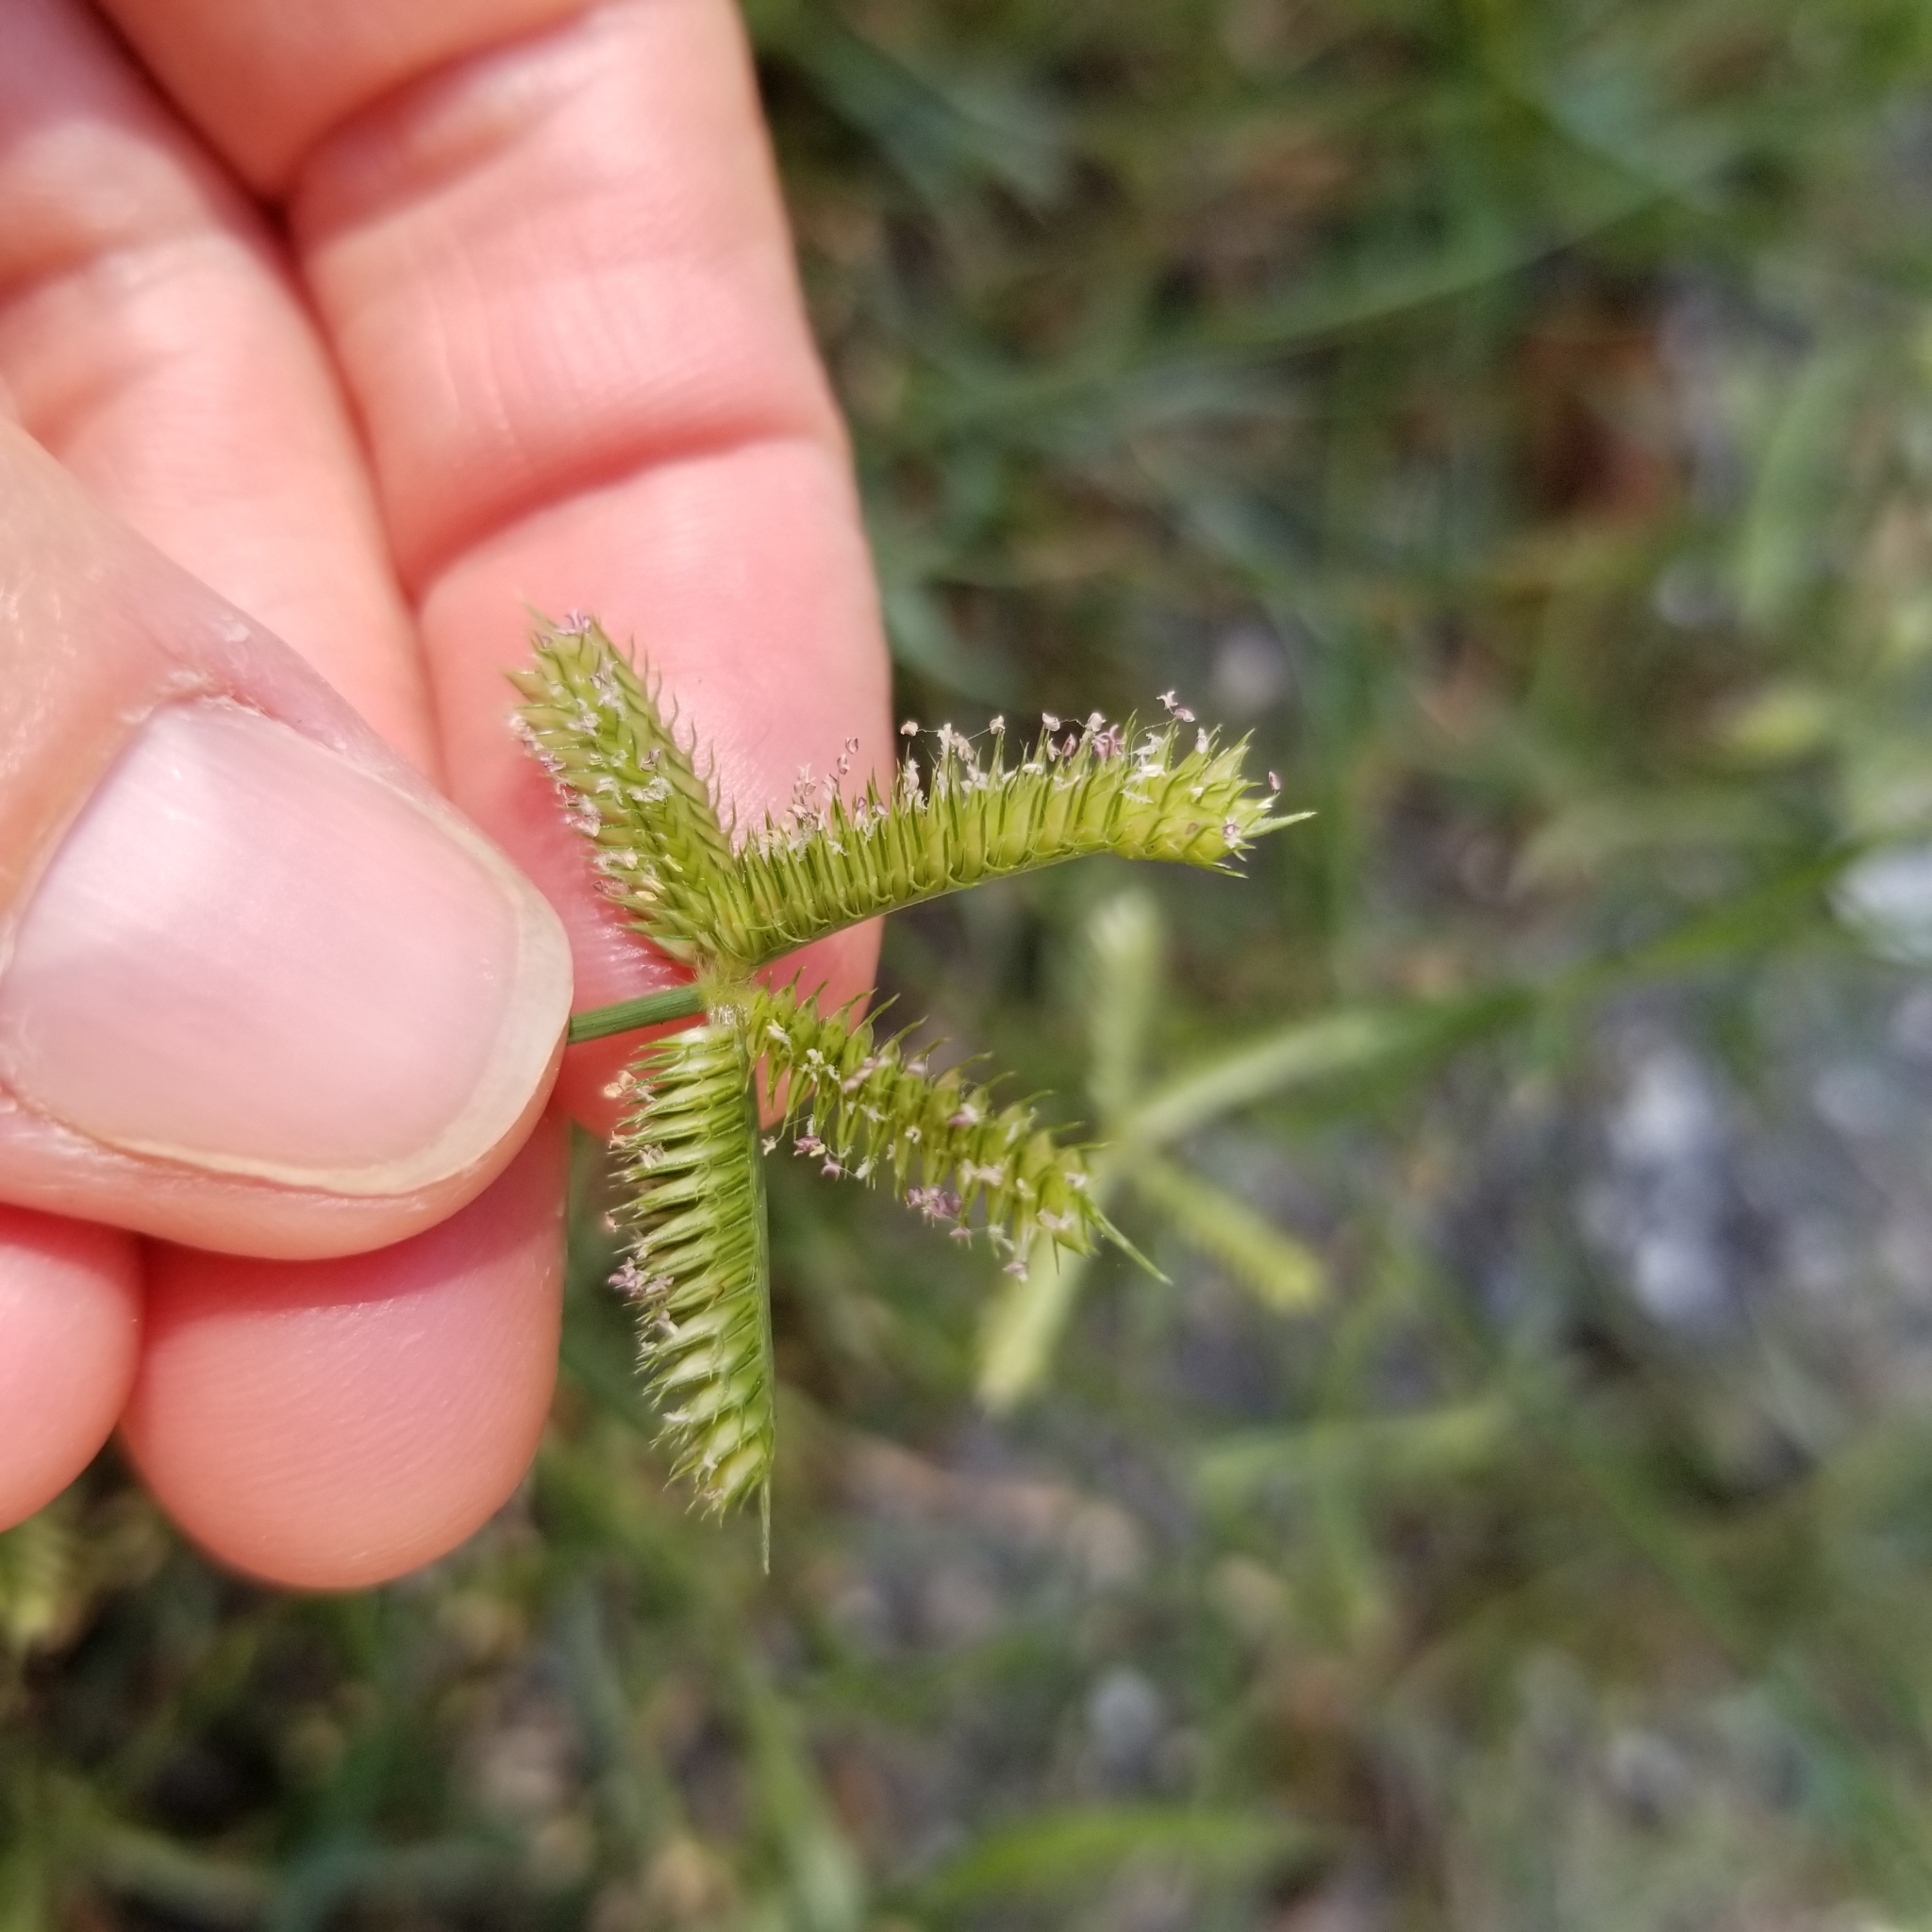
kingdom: Plantae
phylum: Tracheophyta
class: Liliopsida
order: Poales
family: Poaceae
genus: Dactyloctenium
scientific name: Dactyloctenium aegyptium
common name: Egyptian grass
